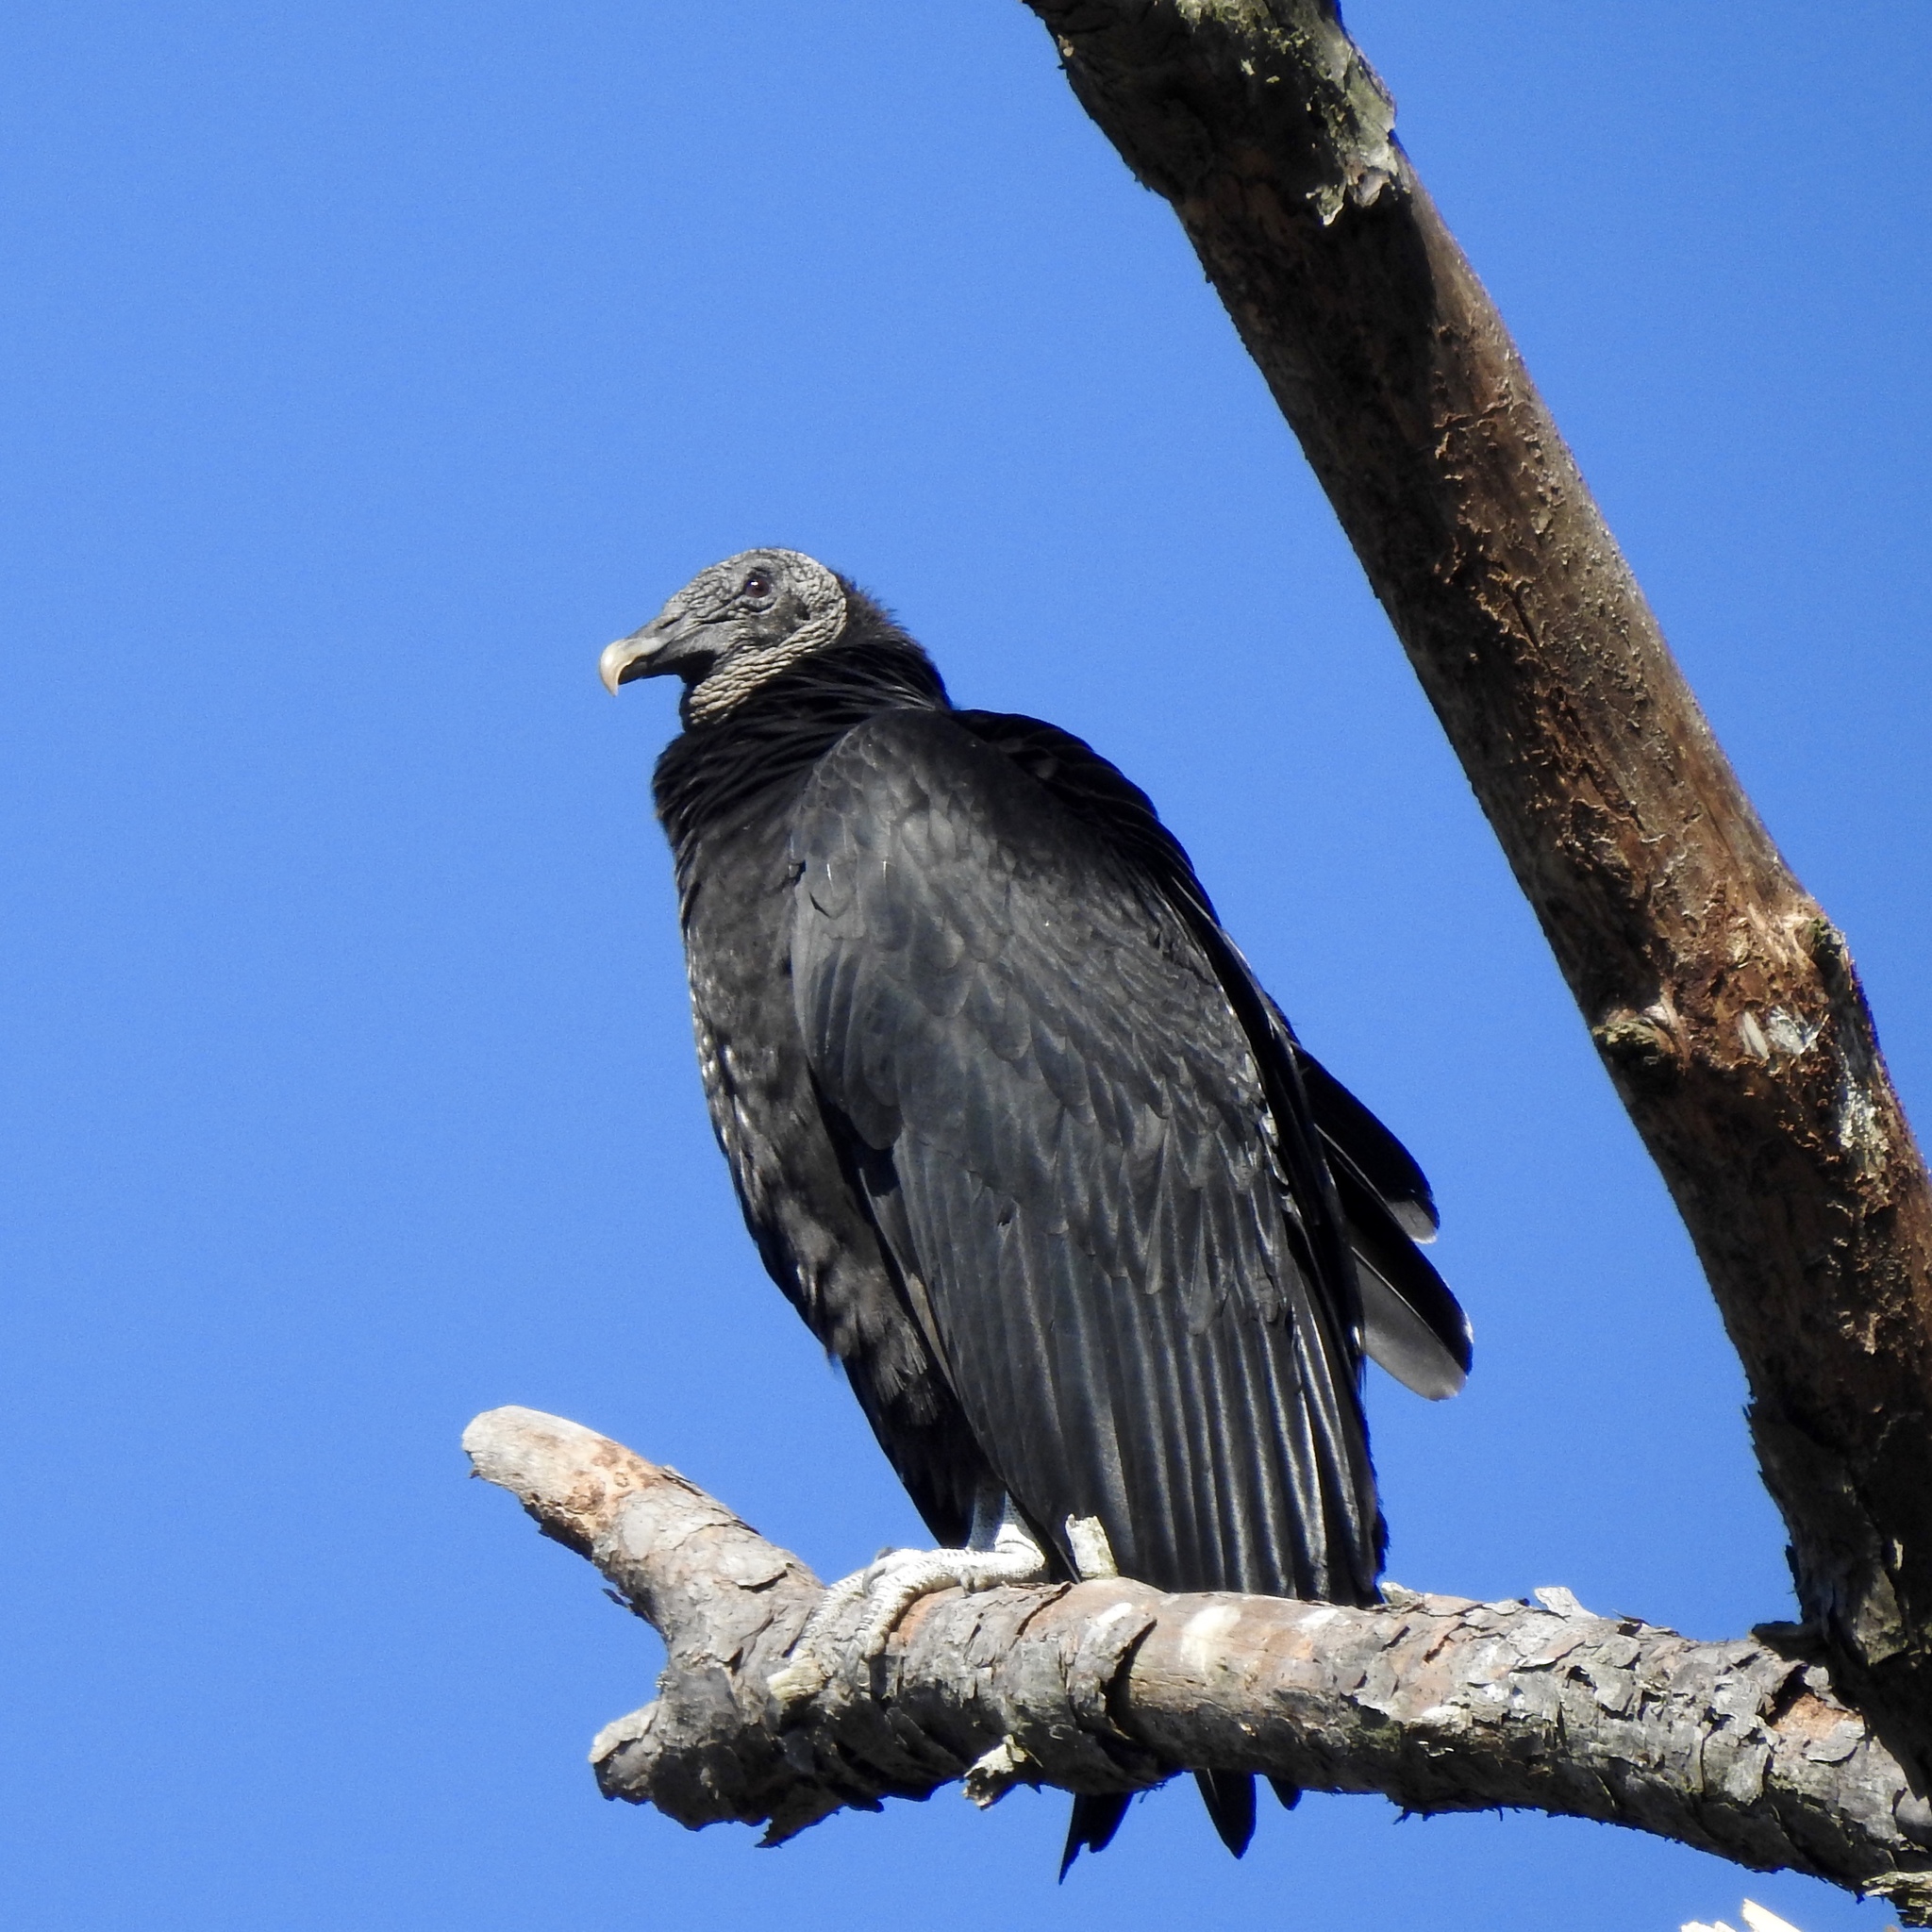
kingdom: Animalia
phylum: Chordata
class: Aves
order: Accipitriformes
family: Cathartidae
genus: Coragyps
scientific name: Coragyps atratus
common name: Black vulture
